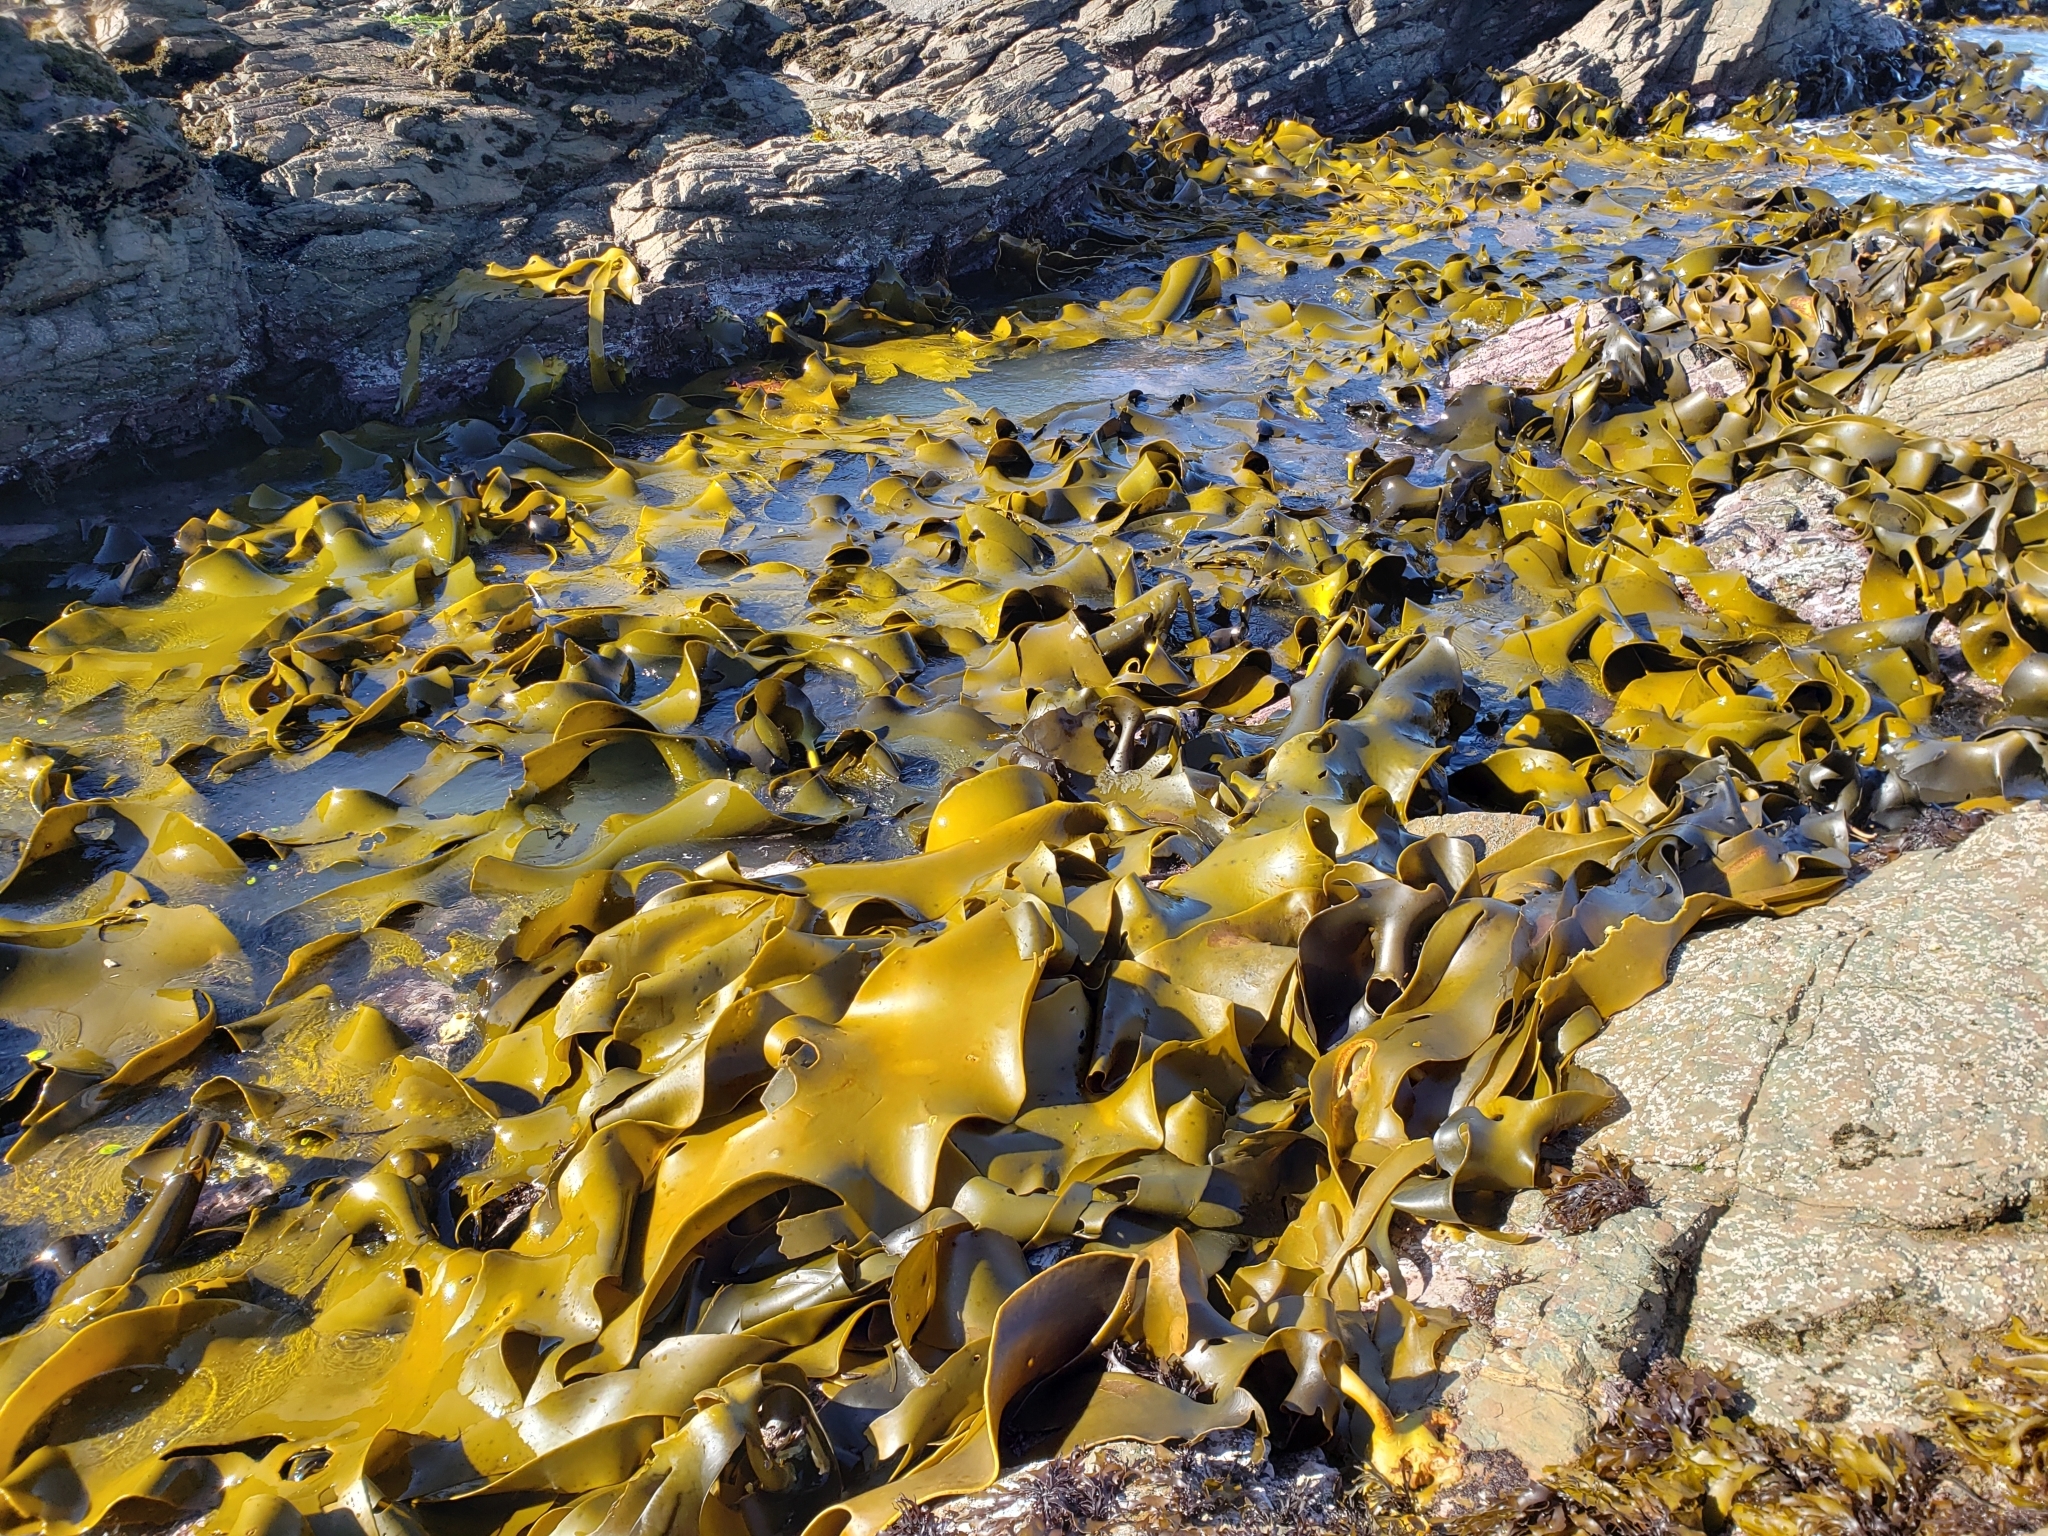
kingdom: Chromista
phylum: Ochrophyta
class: Phaeophyceae
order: Fucales
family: Durvillaeaceae
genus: Durvillaea
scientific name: Durvillaea poha
